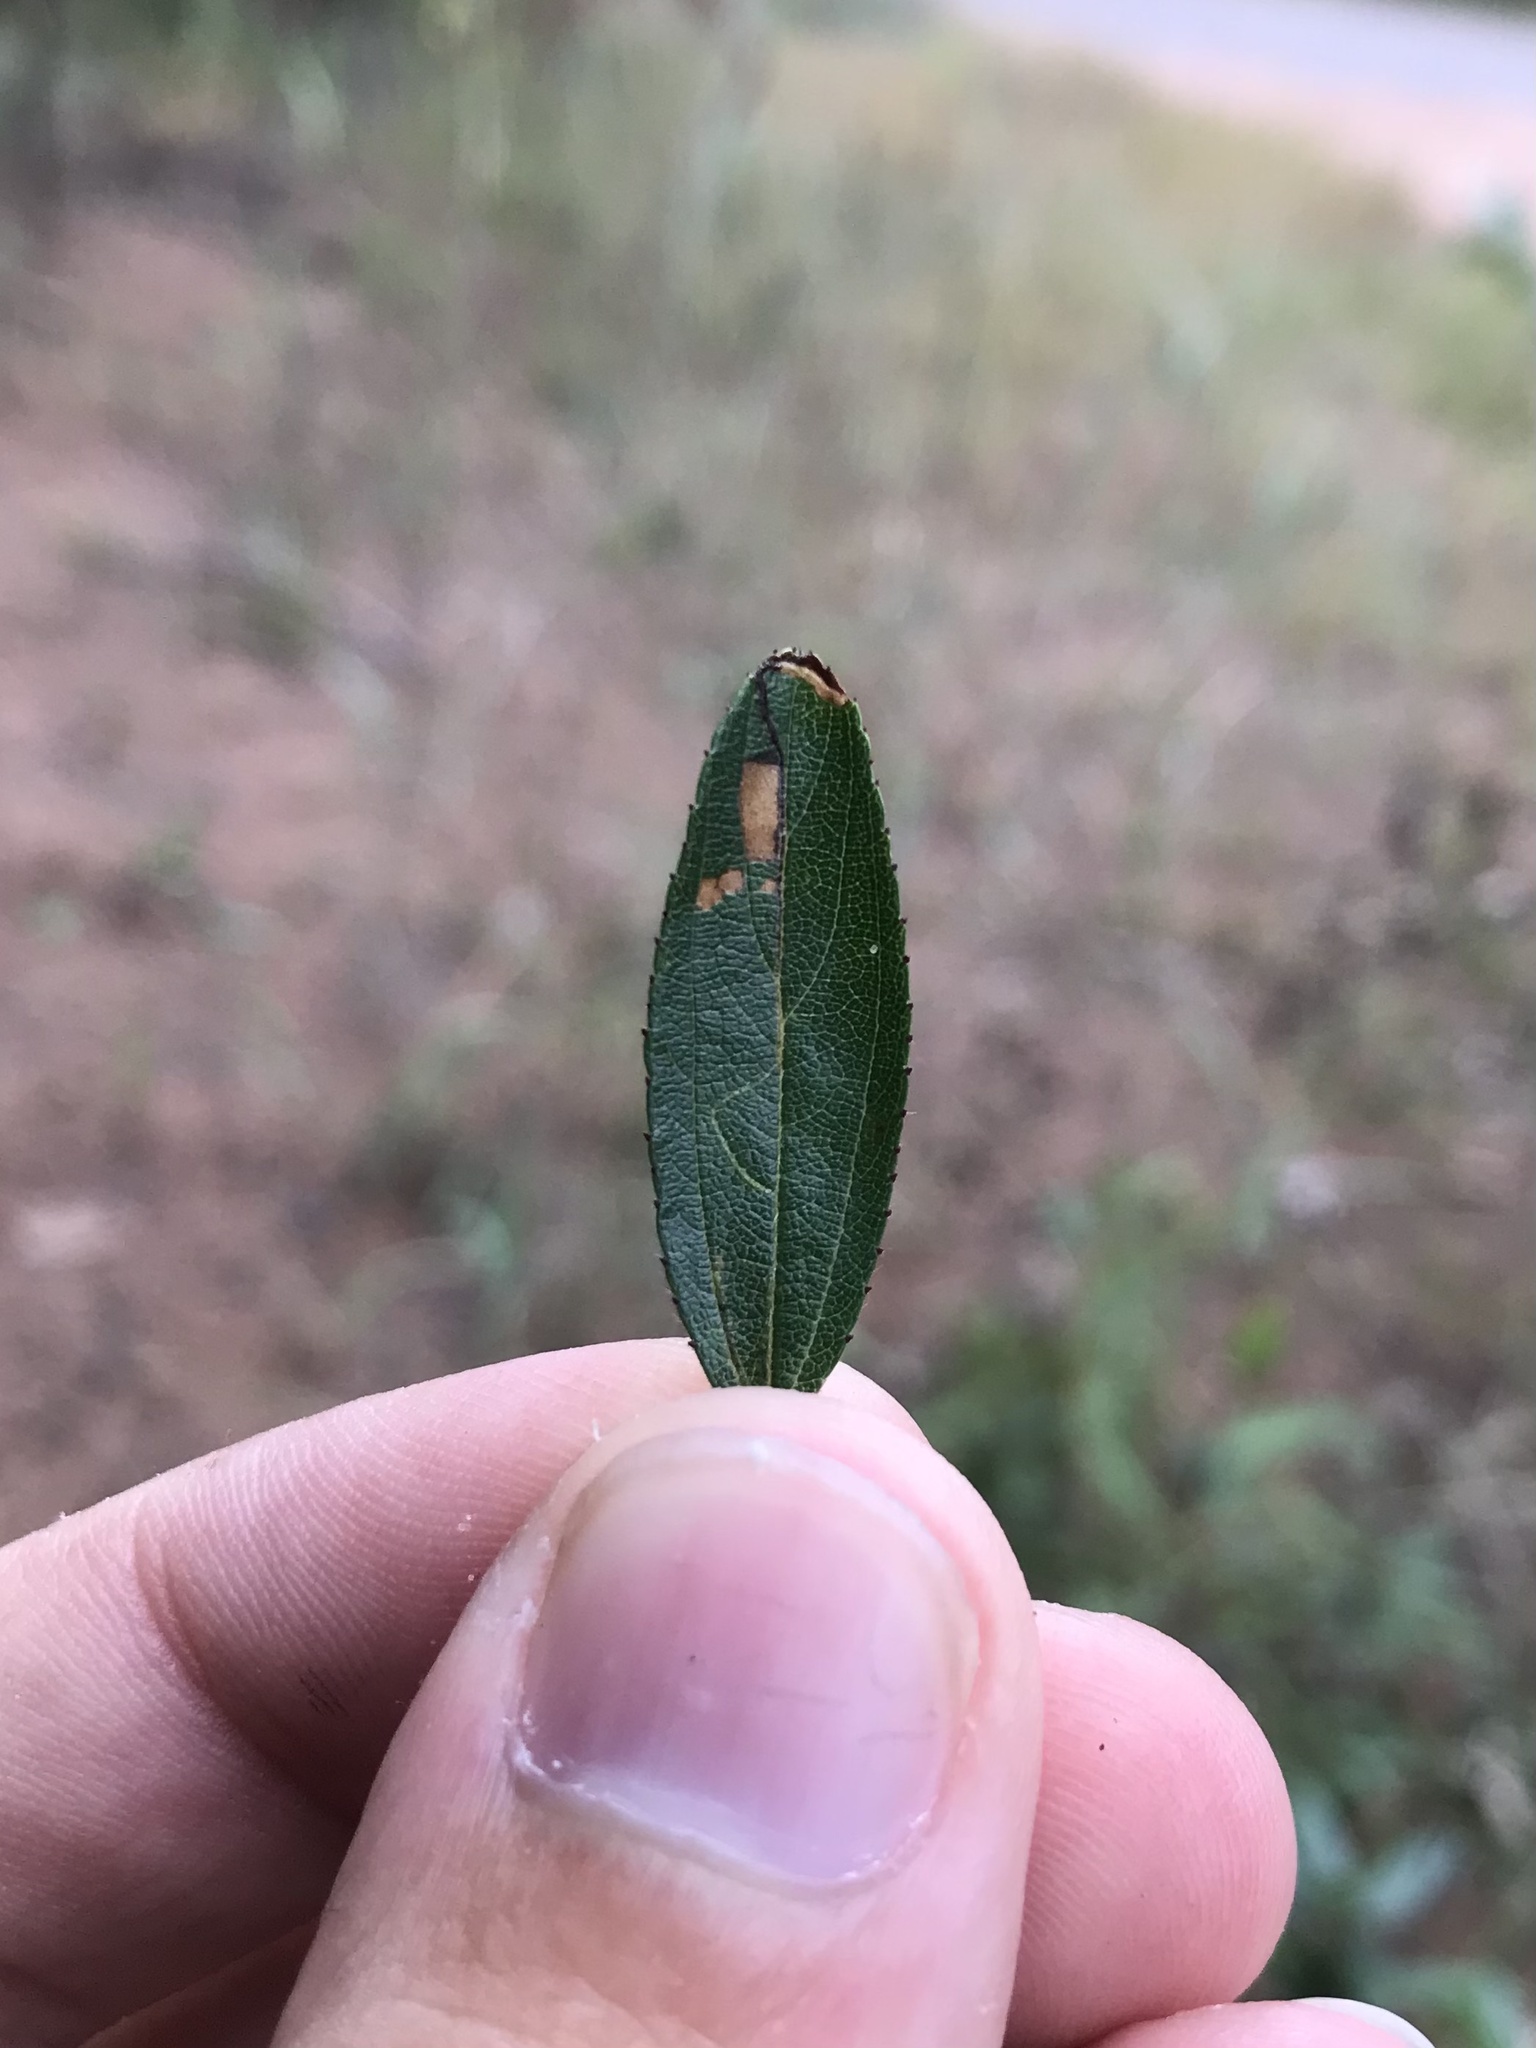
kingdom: Animalia
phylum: Arthropoda
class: Insecta
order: Lepidoptera
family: Bucculatricidae
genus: Bucculatrix
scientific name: Bucculatrix anaticula
